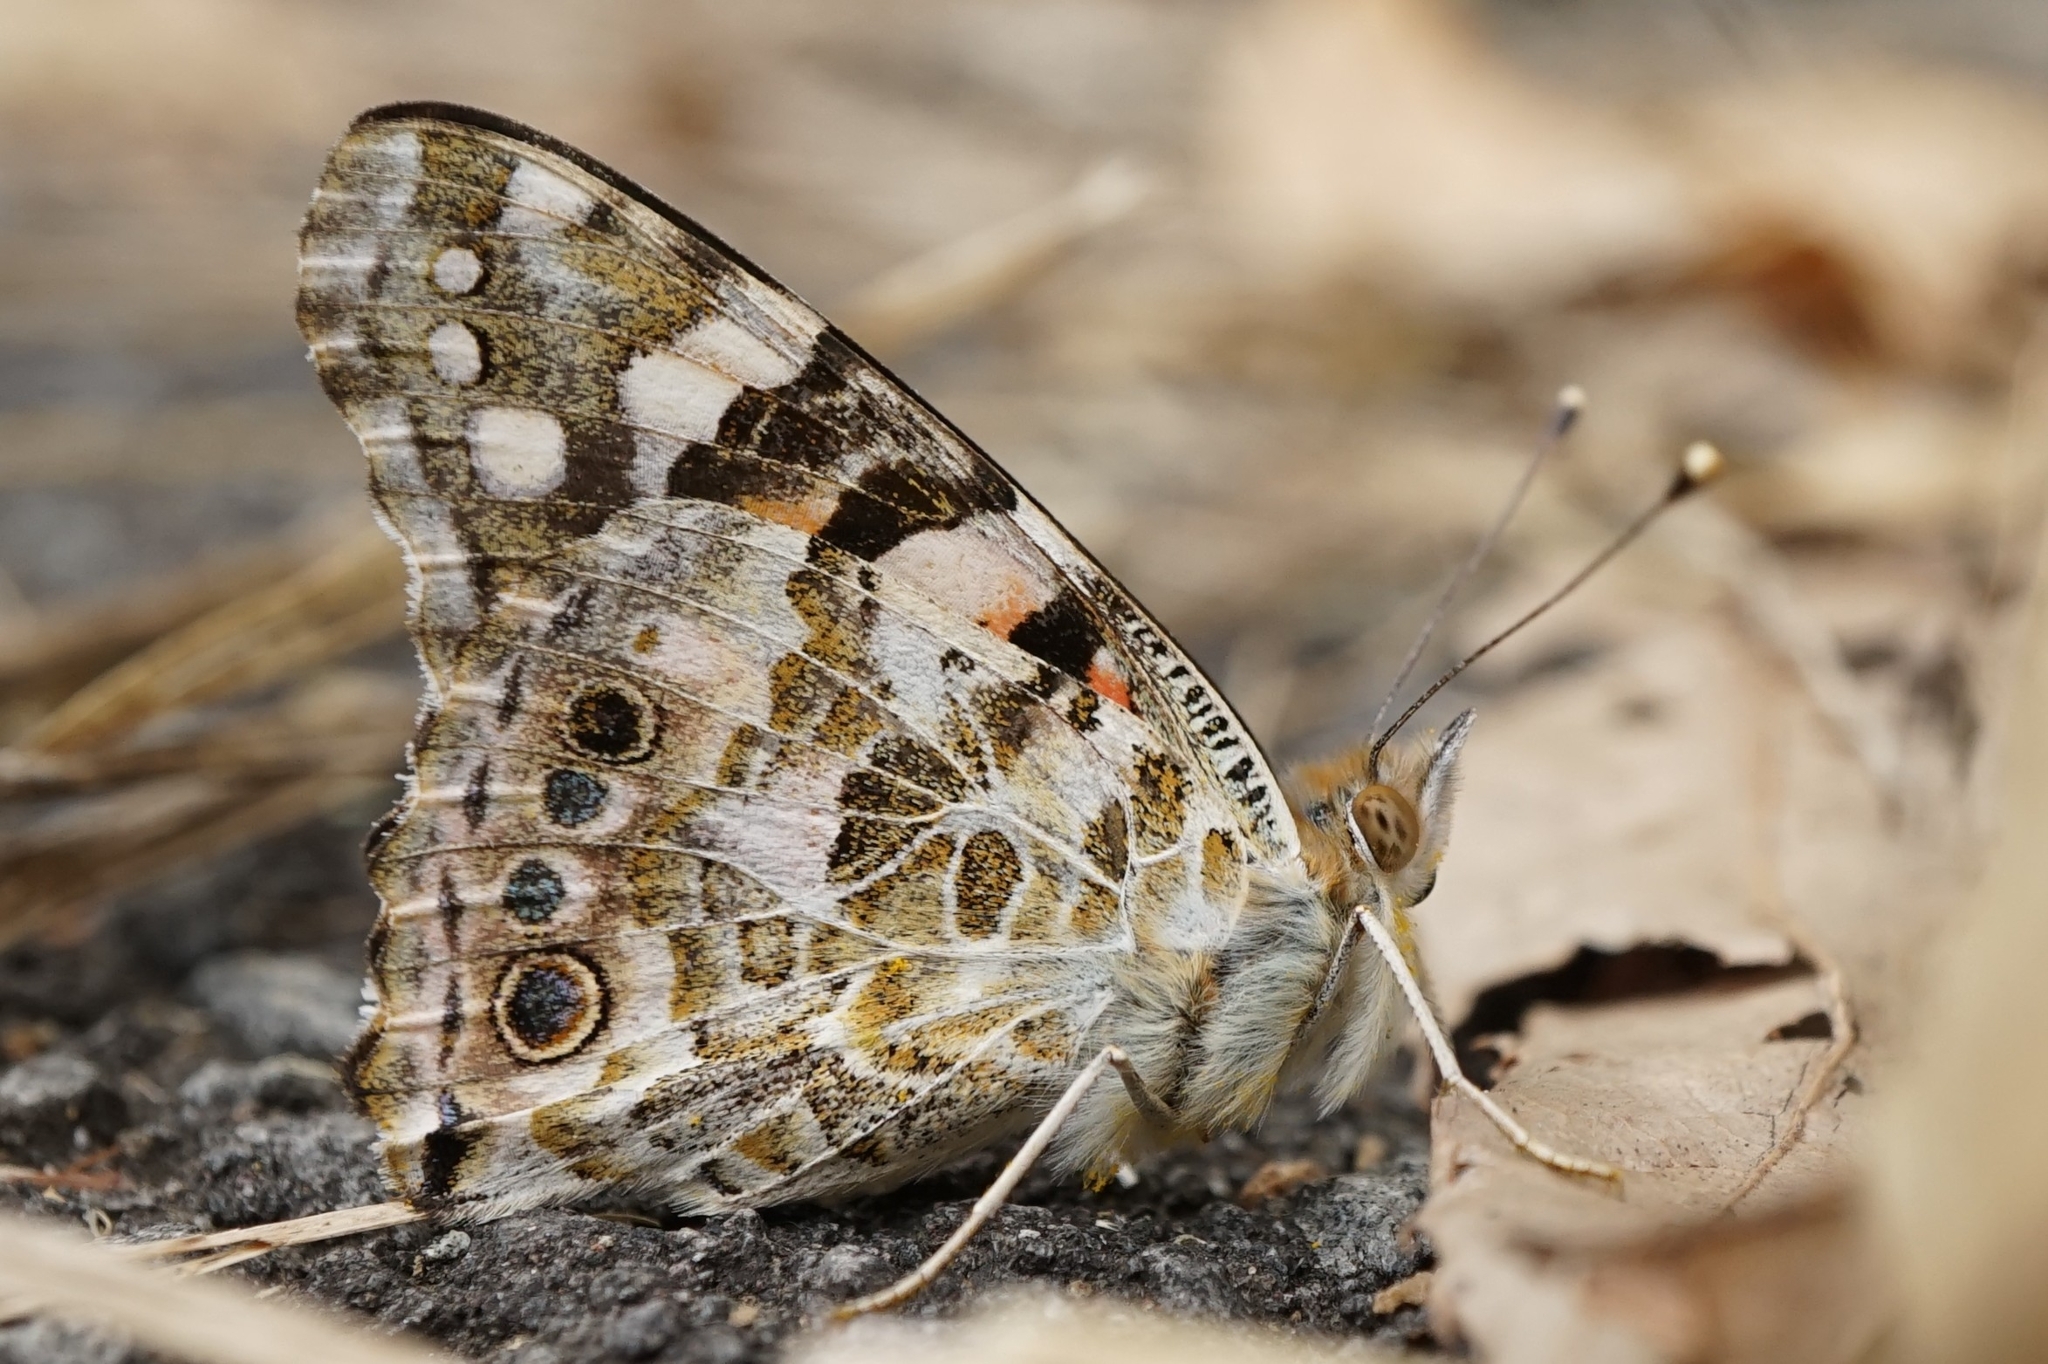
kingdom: Animalia
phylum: Arthropoda
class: Insecta
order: Lepidoptera
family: Nymphalidae
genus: Vanessa
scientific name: Vanessa cardui
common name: Painted lady
